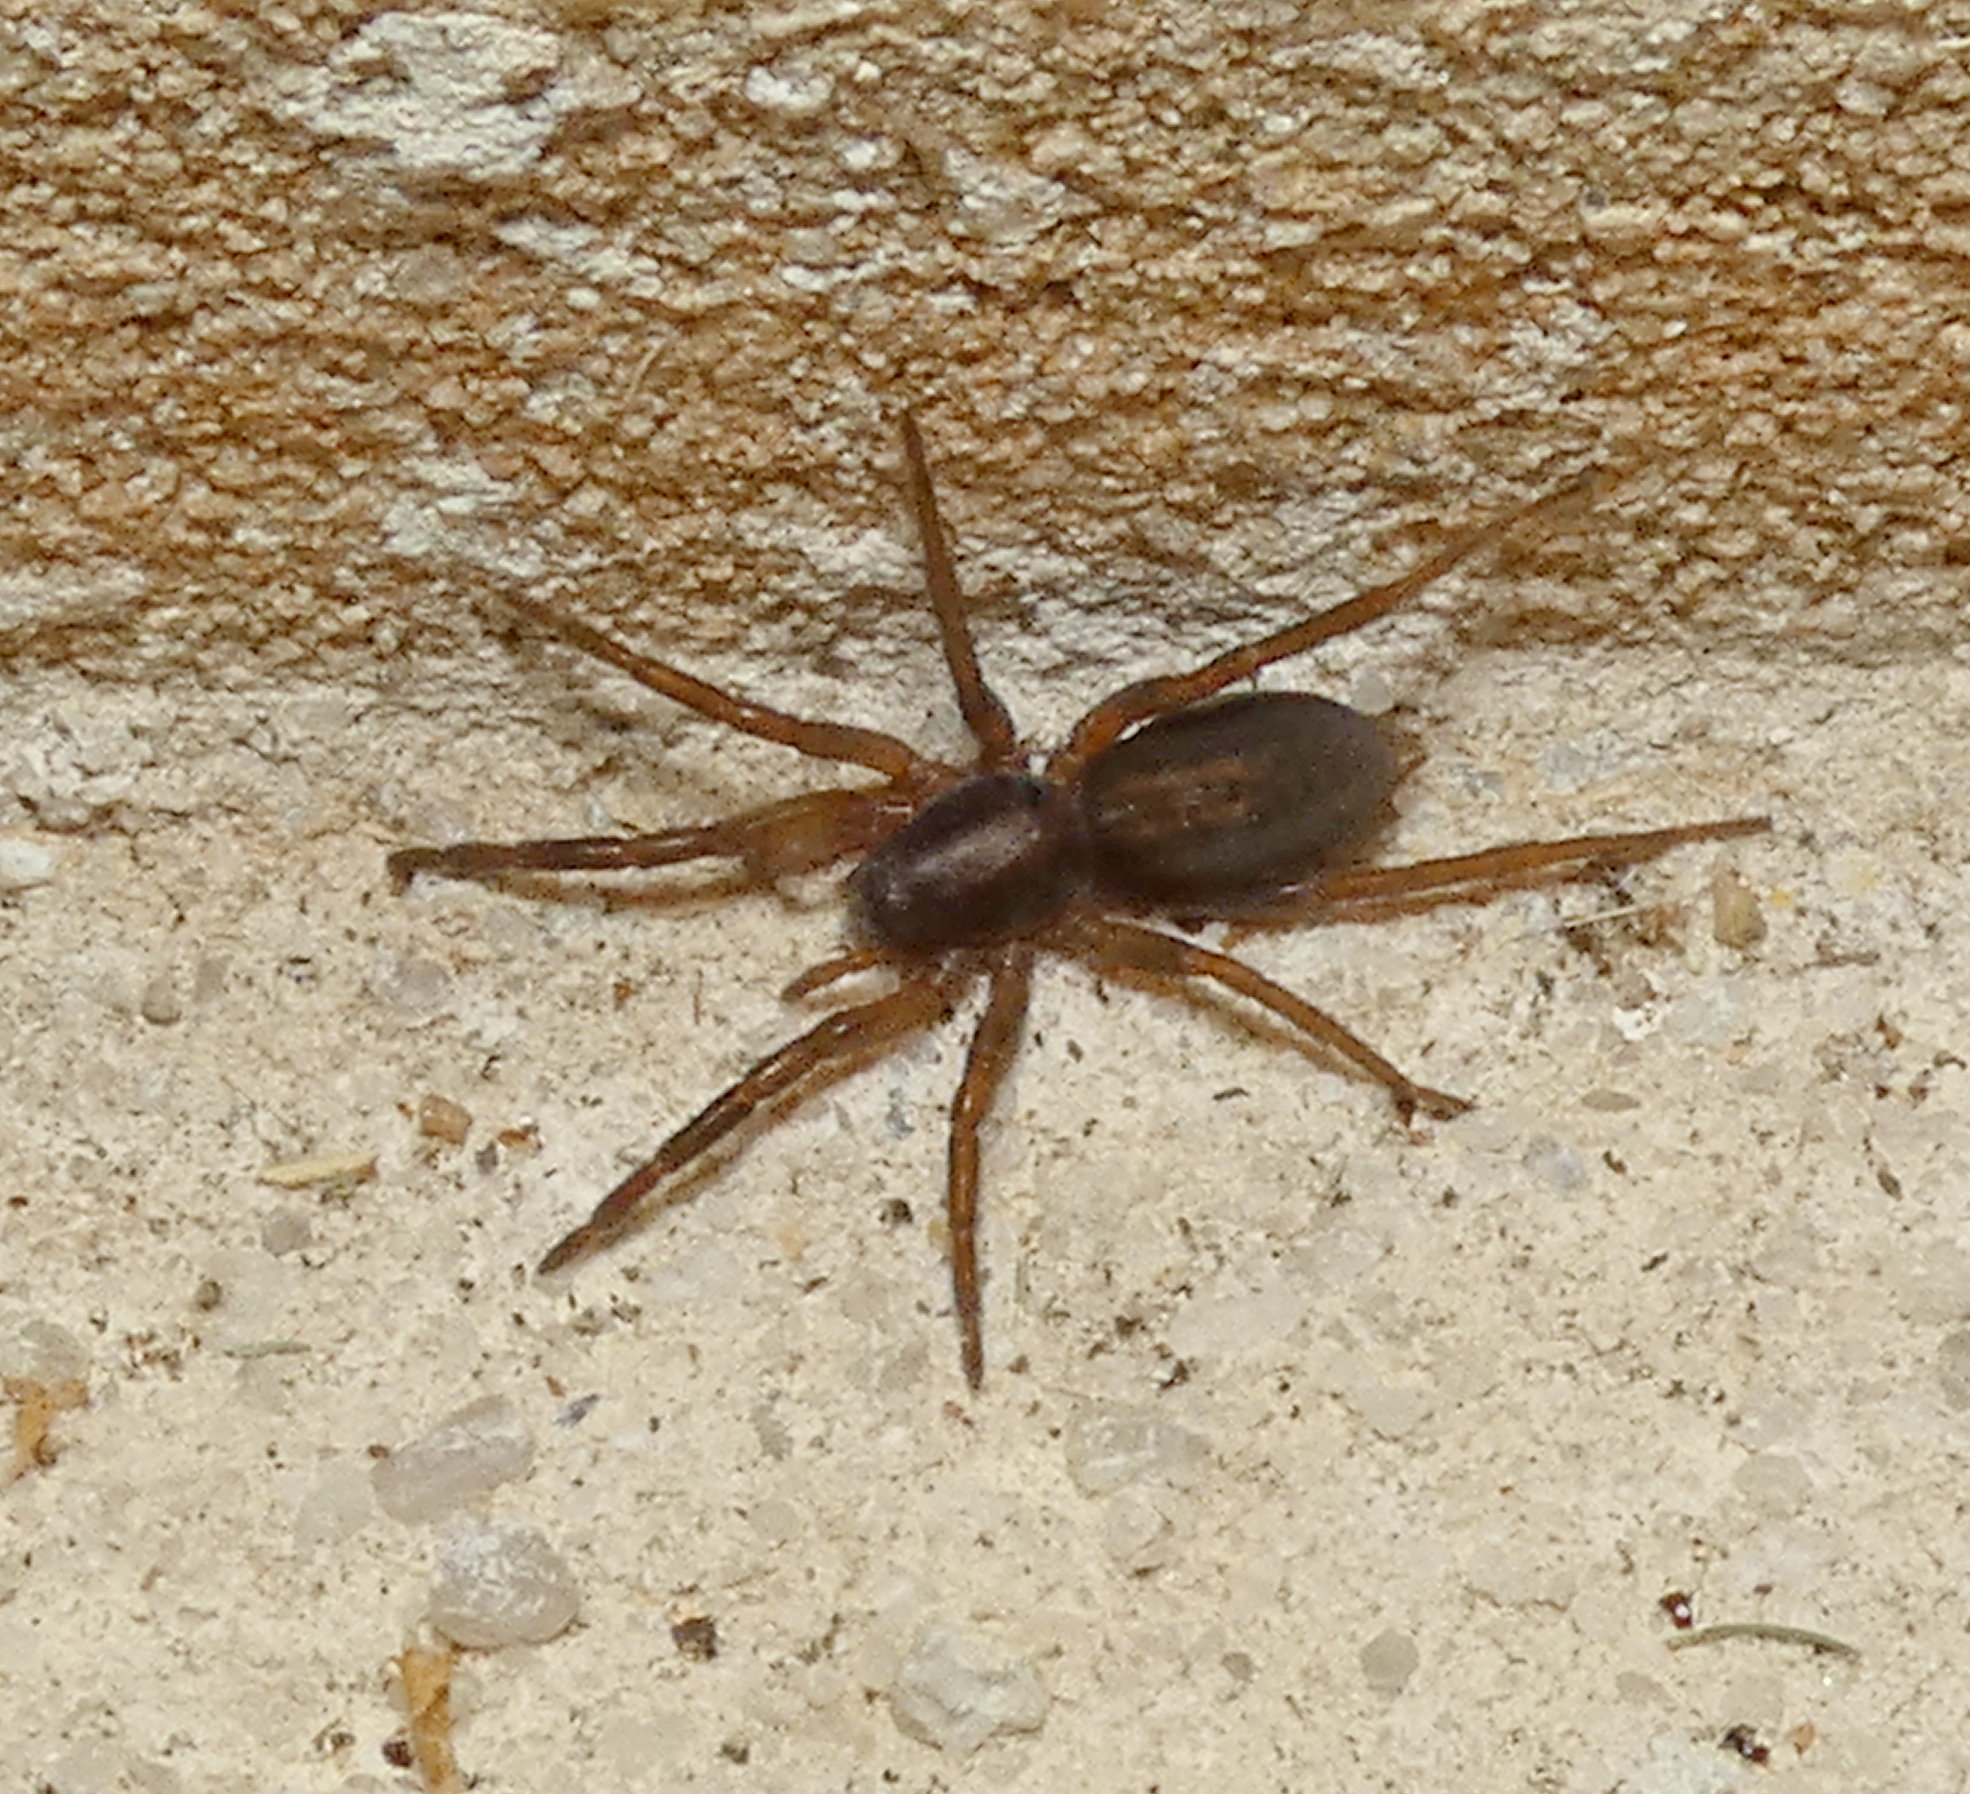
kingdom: Animalia
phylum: Arthropoda
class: Arachnida
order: Araneae
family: Miturgidae
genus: Teminius
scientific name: Teminius insularis
